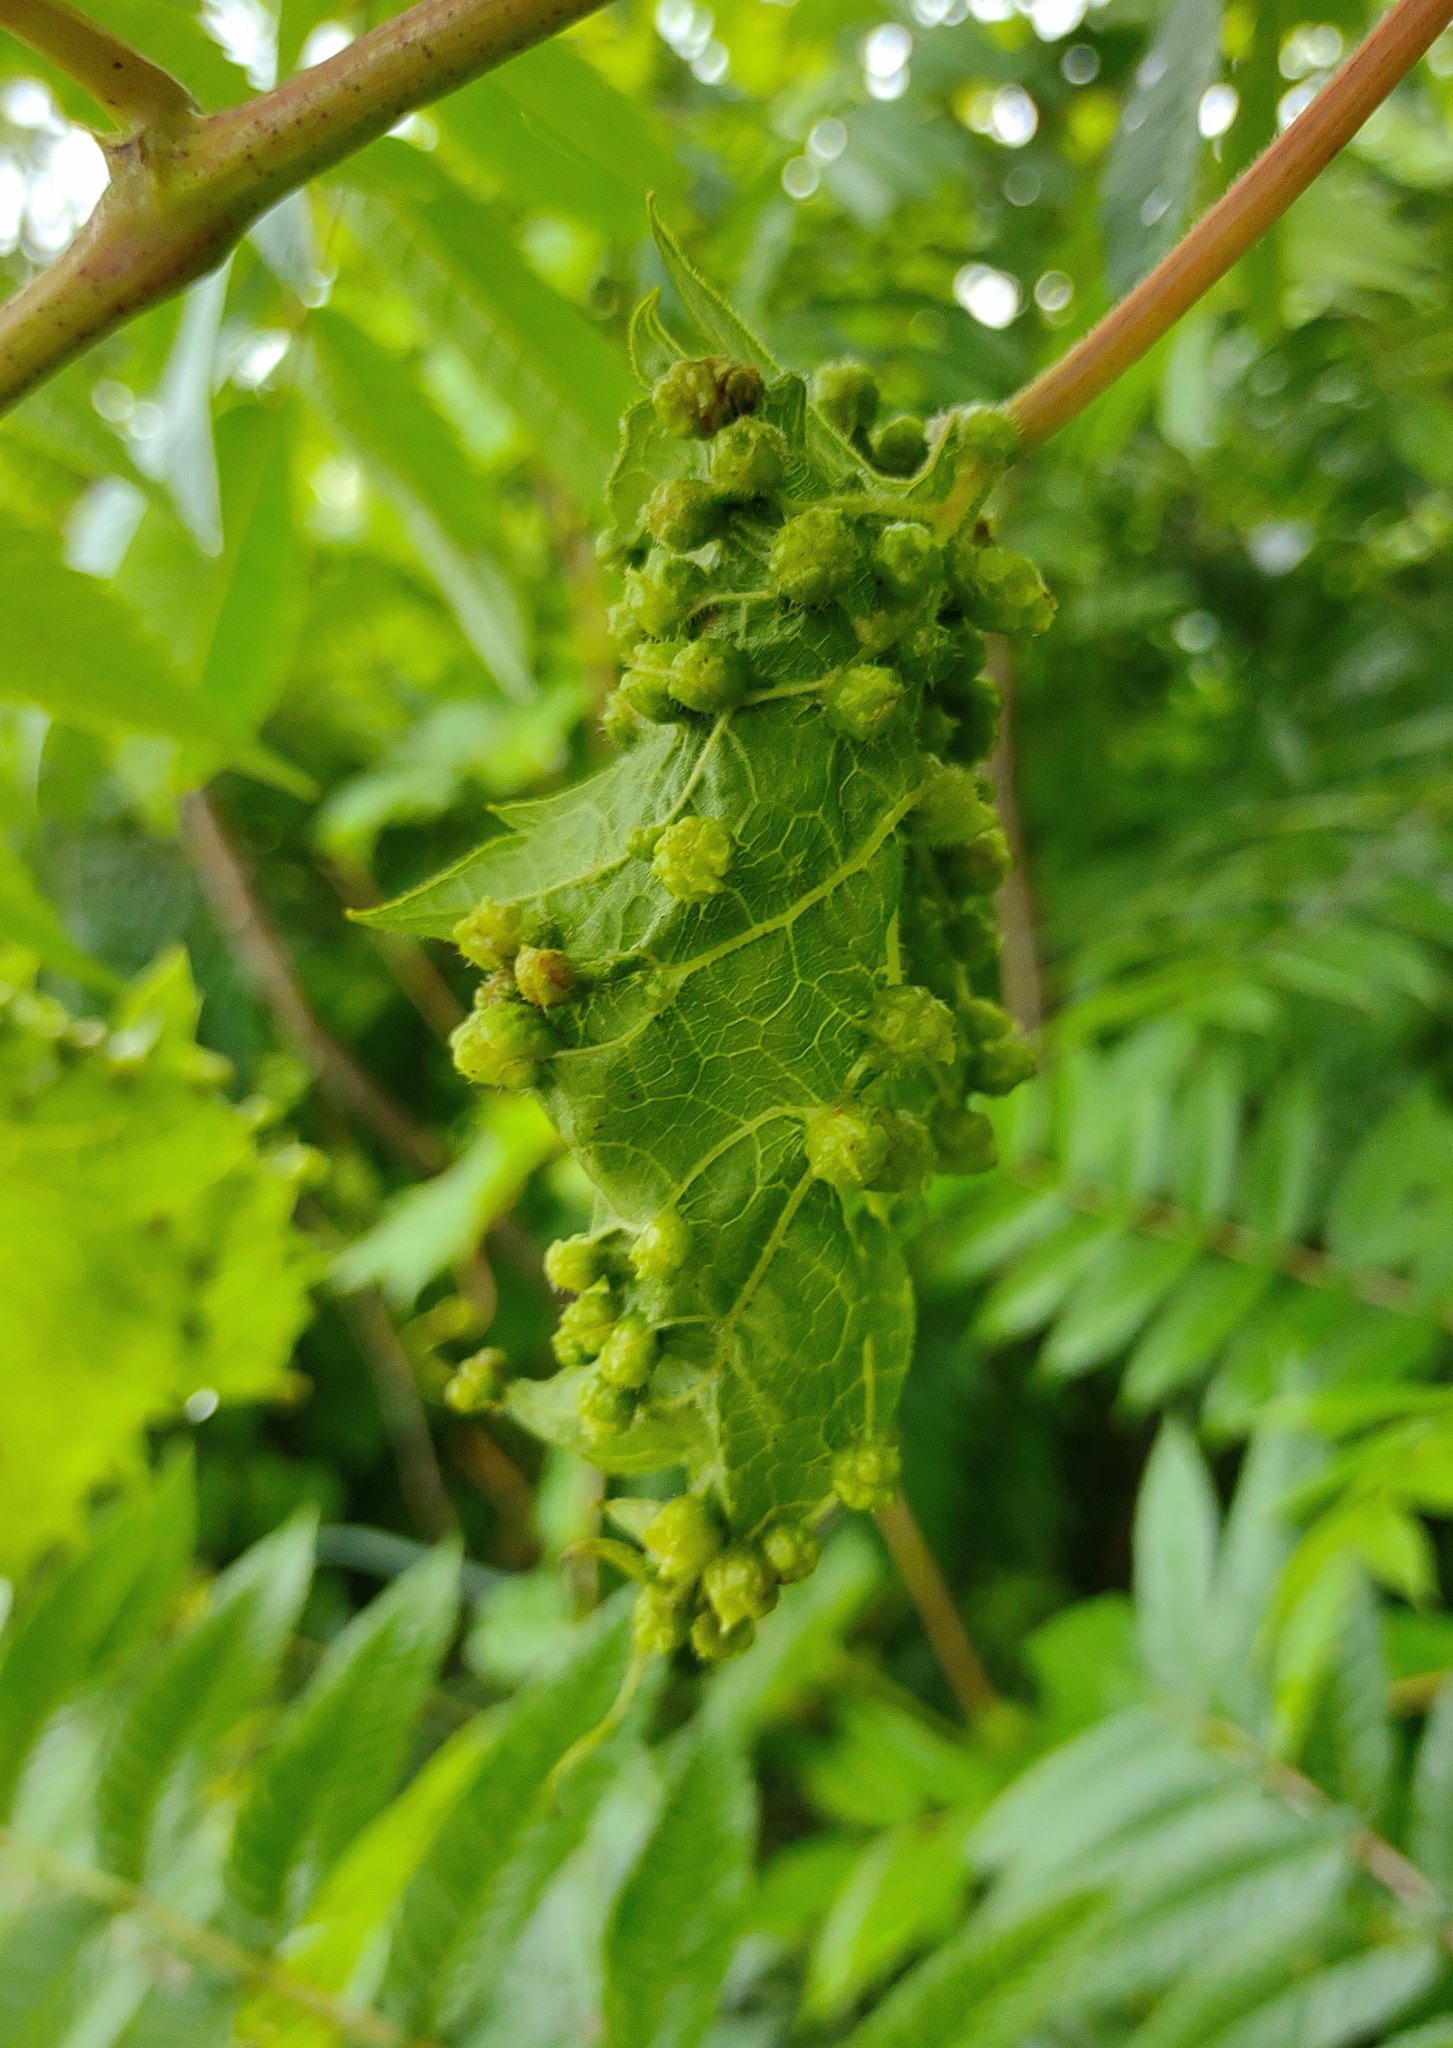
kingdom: Animalia
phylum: Arthropoda
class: Insecta
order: Hemiptera
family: Phylloxeridae
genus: Daktulosphaira
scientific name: Daktulosphaira vitifoliae
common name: Grape phylloxera
